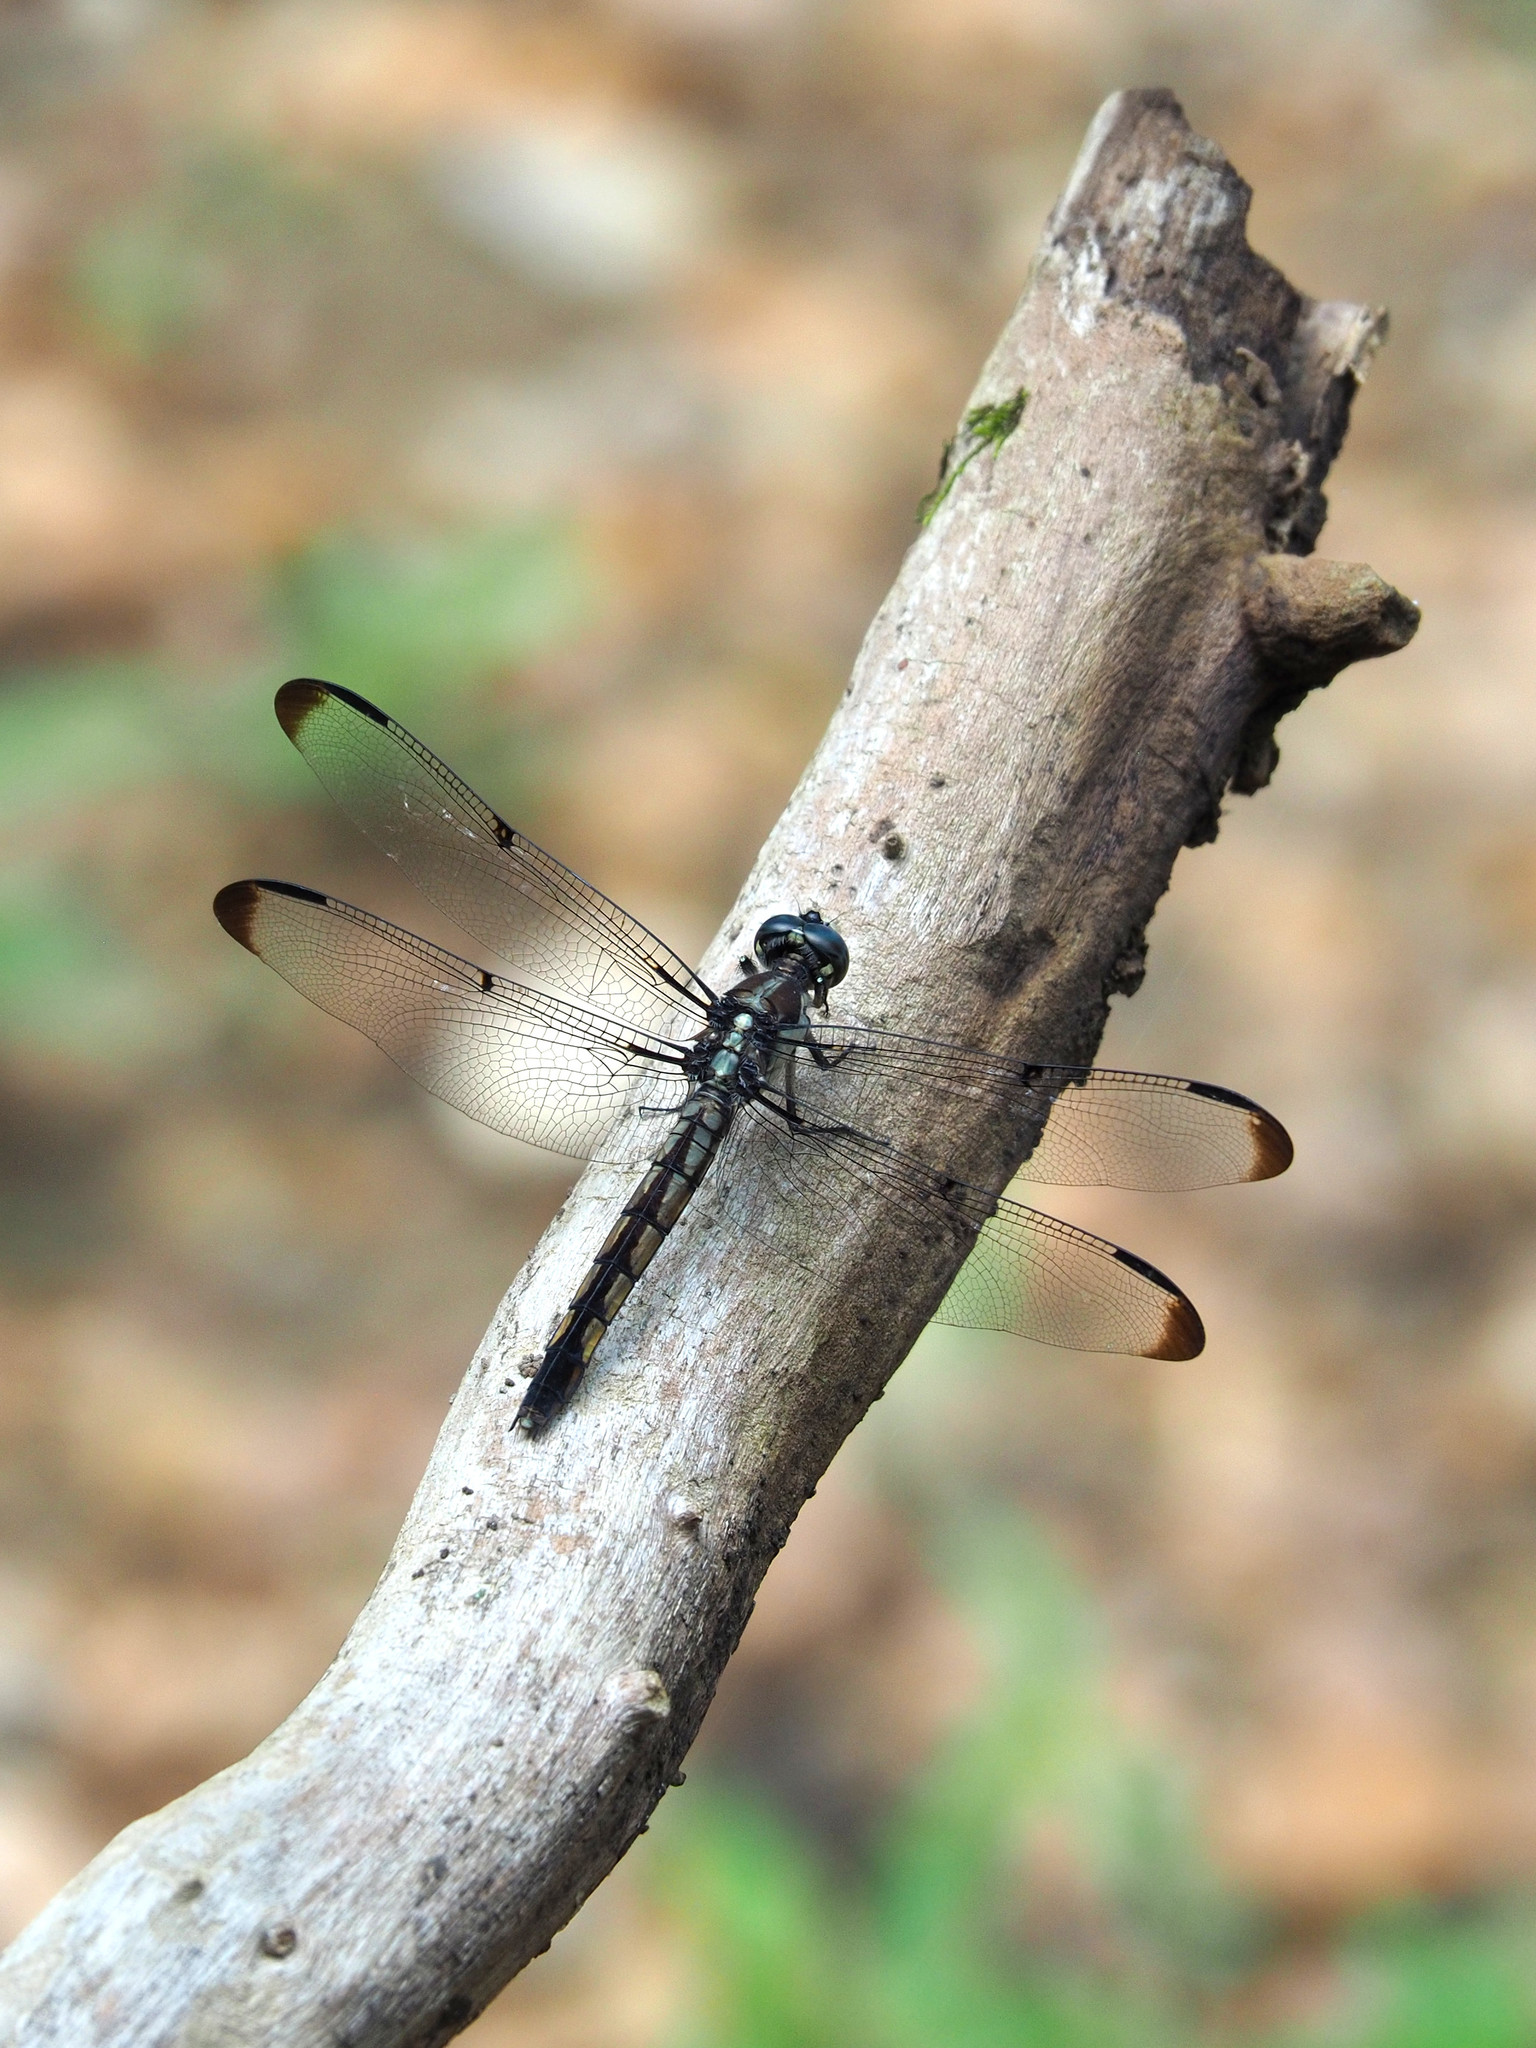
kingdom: Animalia
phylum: Arthropoda
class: Insecta
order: Odonata
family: Libellulidae
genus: Libellula
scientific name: Libellula vibrans
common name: Great blue skimmer
